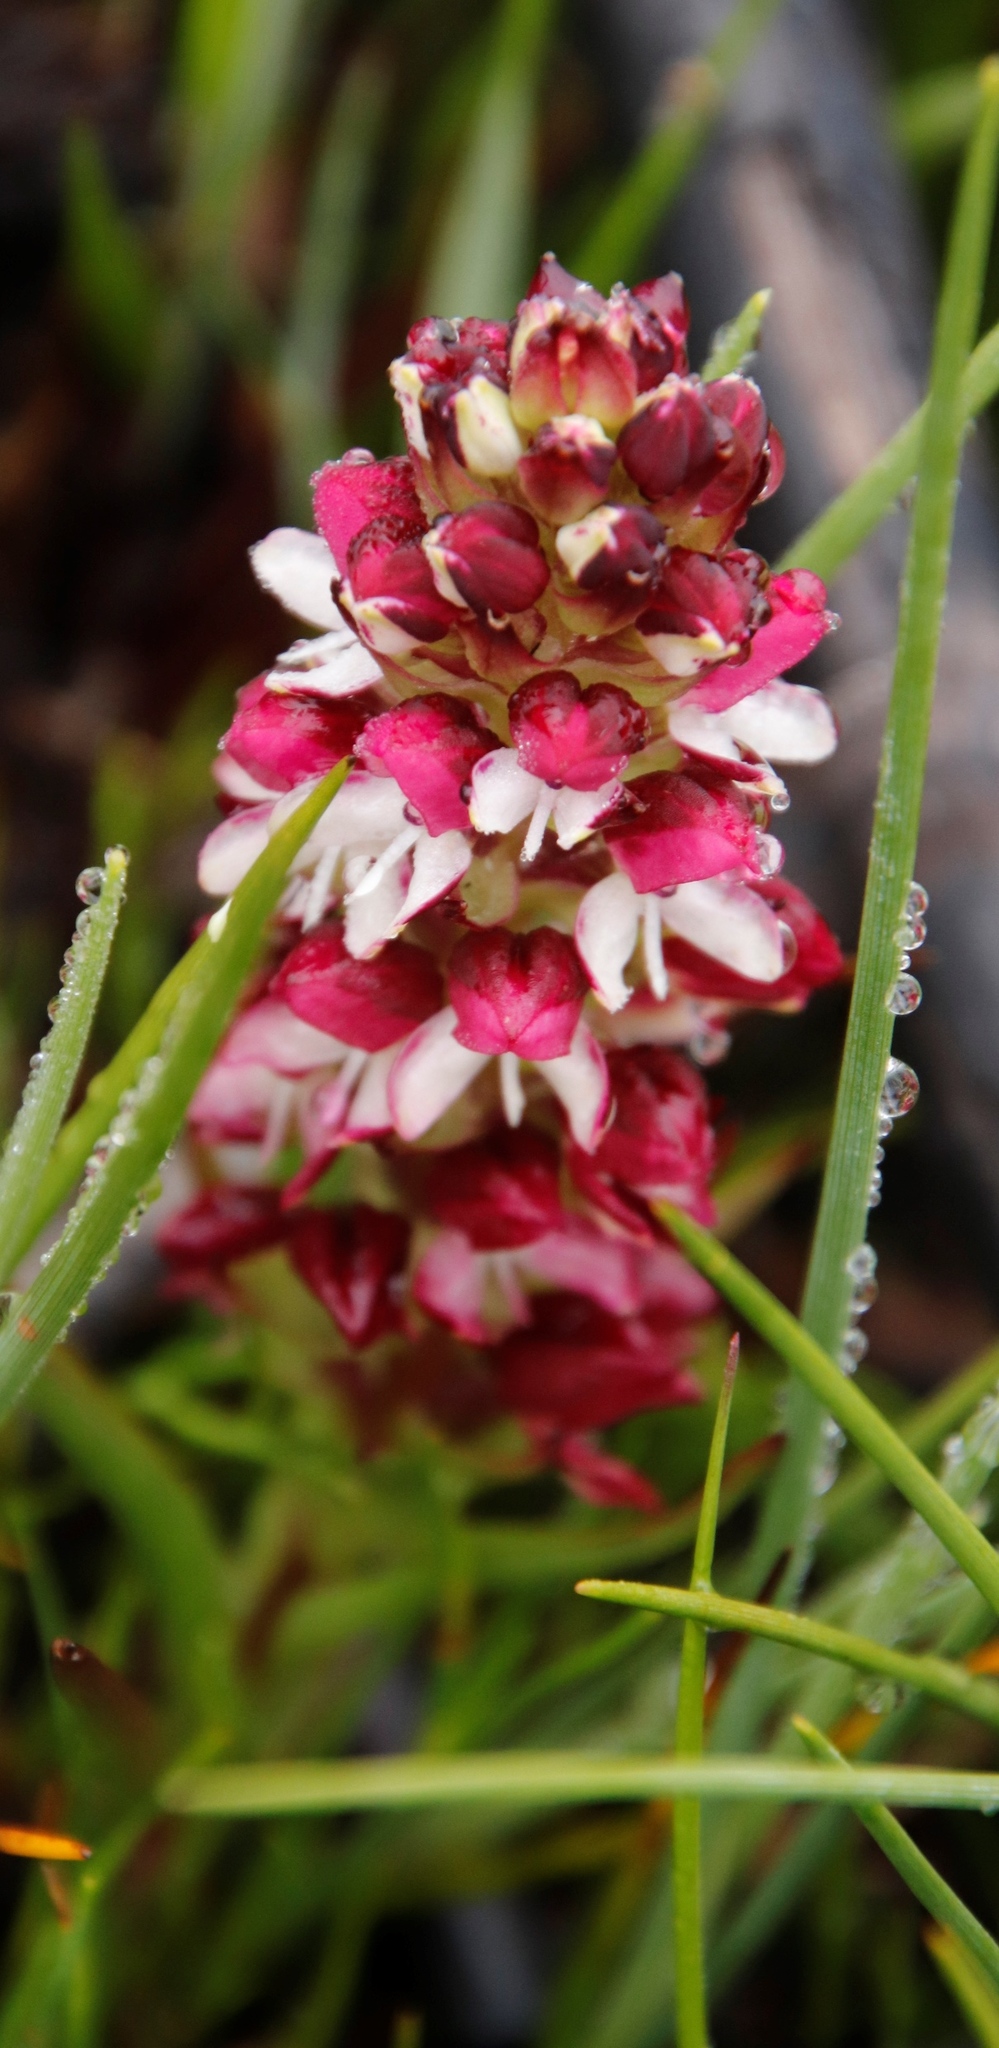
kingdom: Plantae
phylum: Tracheophyta
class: Liliopsida
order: Asparagales
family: Orchidaceae
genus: Disa
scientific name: Disa albomagentea
